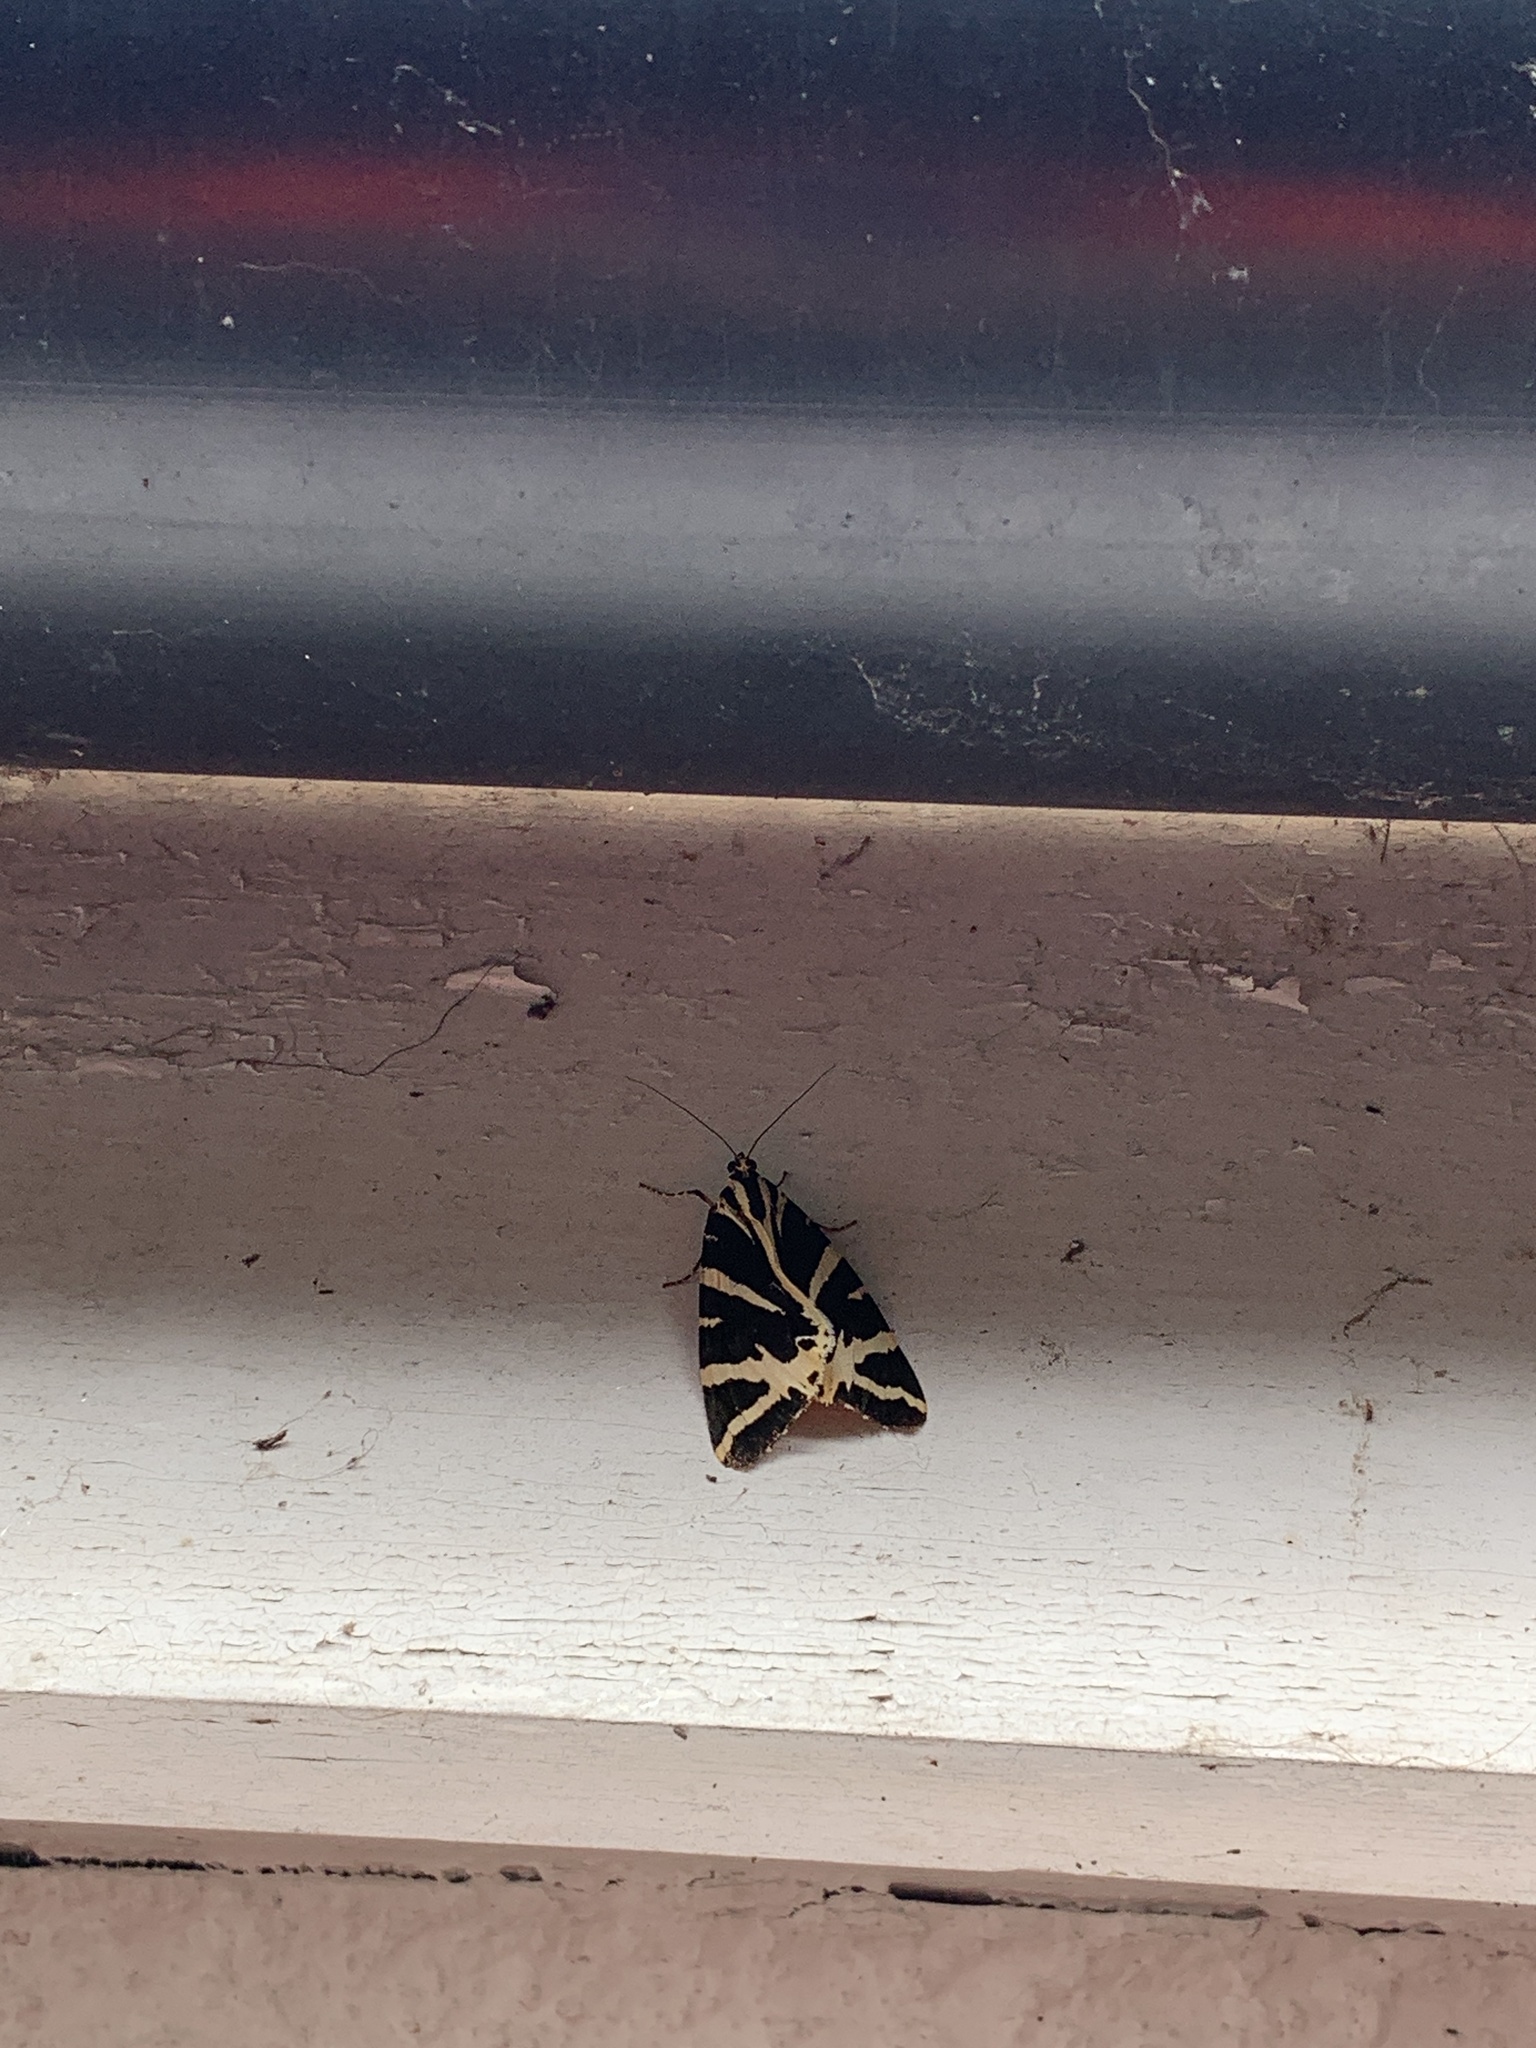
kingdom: Animalia
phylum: Arthropoda
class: Insecta
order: Lepidoptera
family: Erebidae
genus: Euplagia
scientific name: Euplagia quadripunctaria
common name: Jersey tiger
